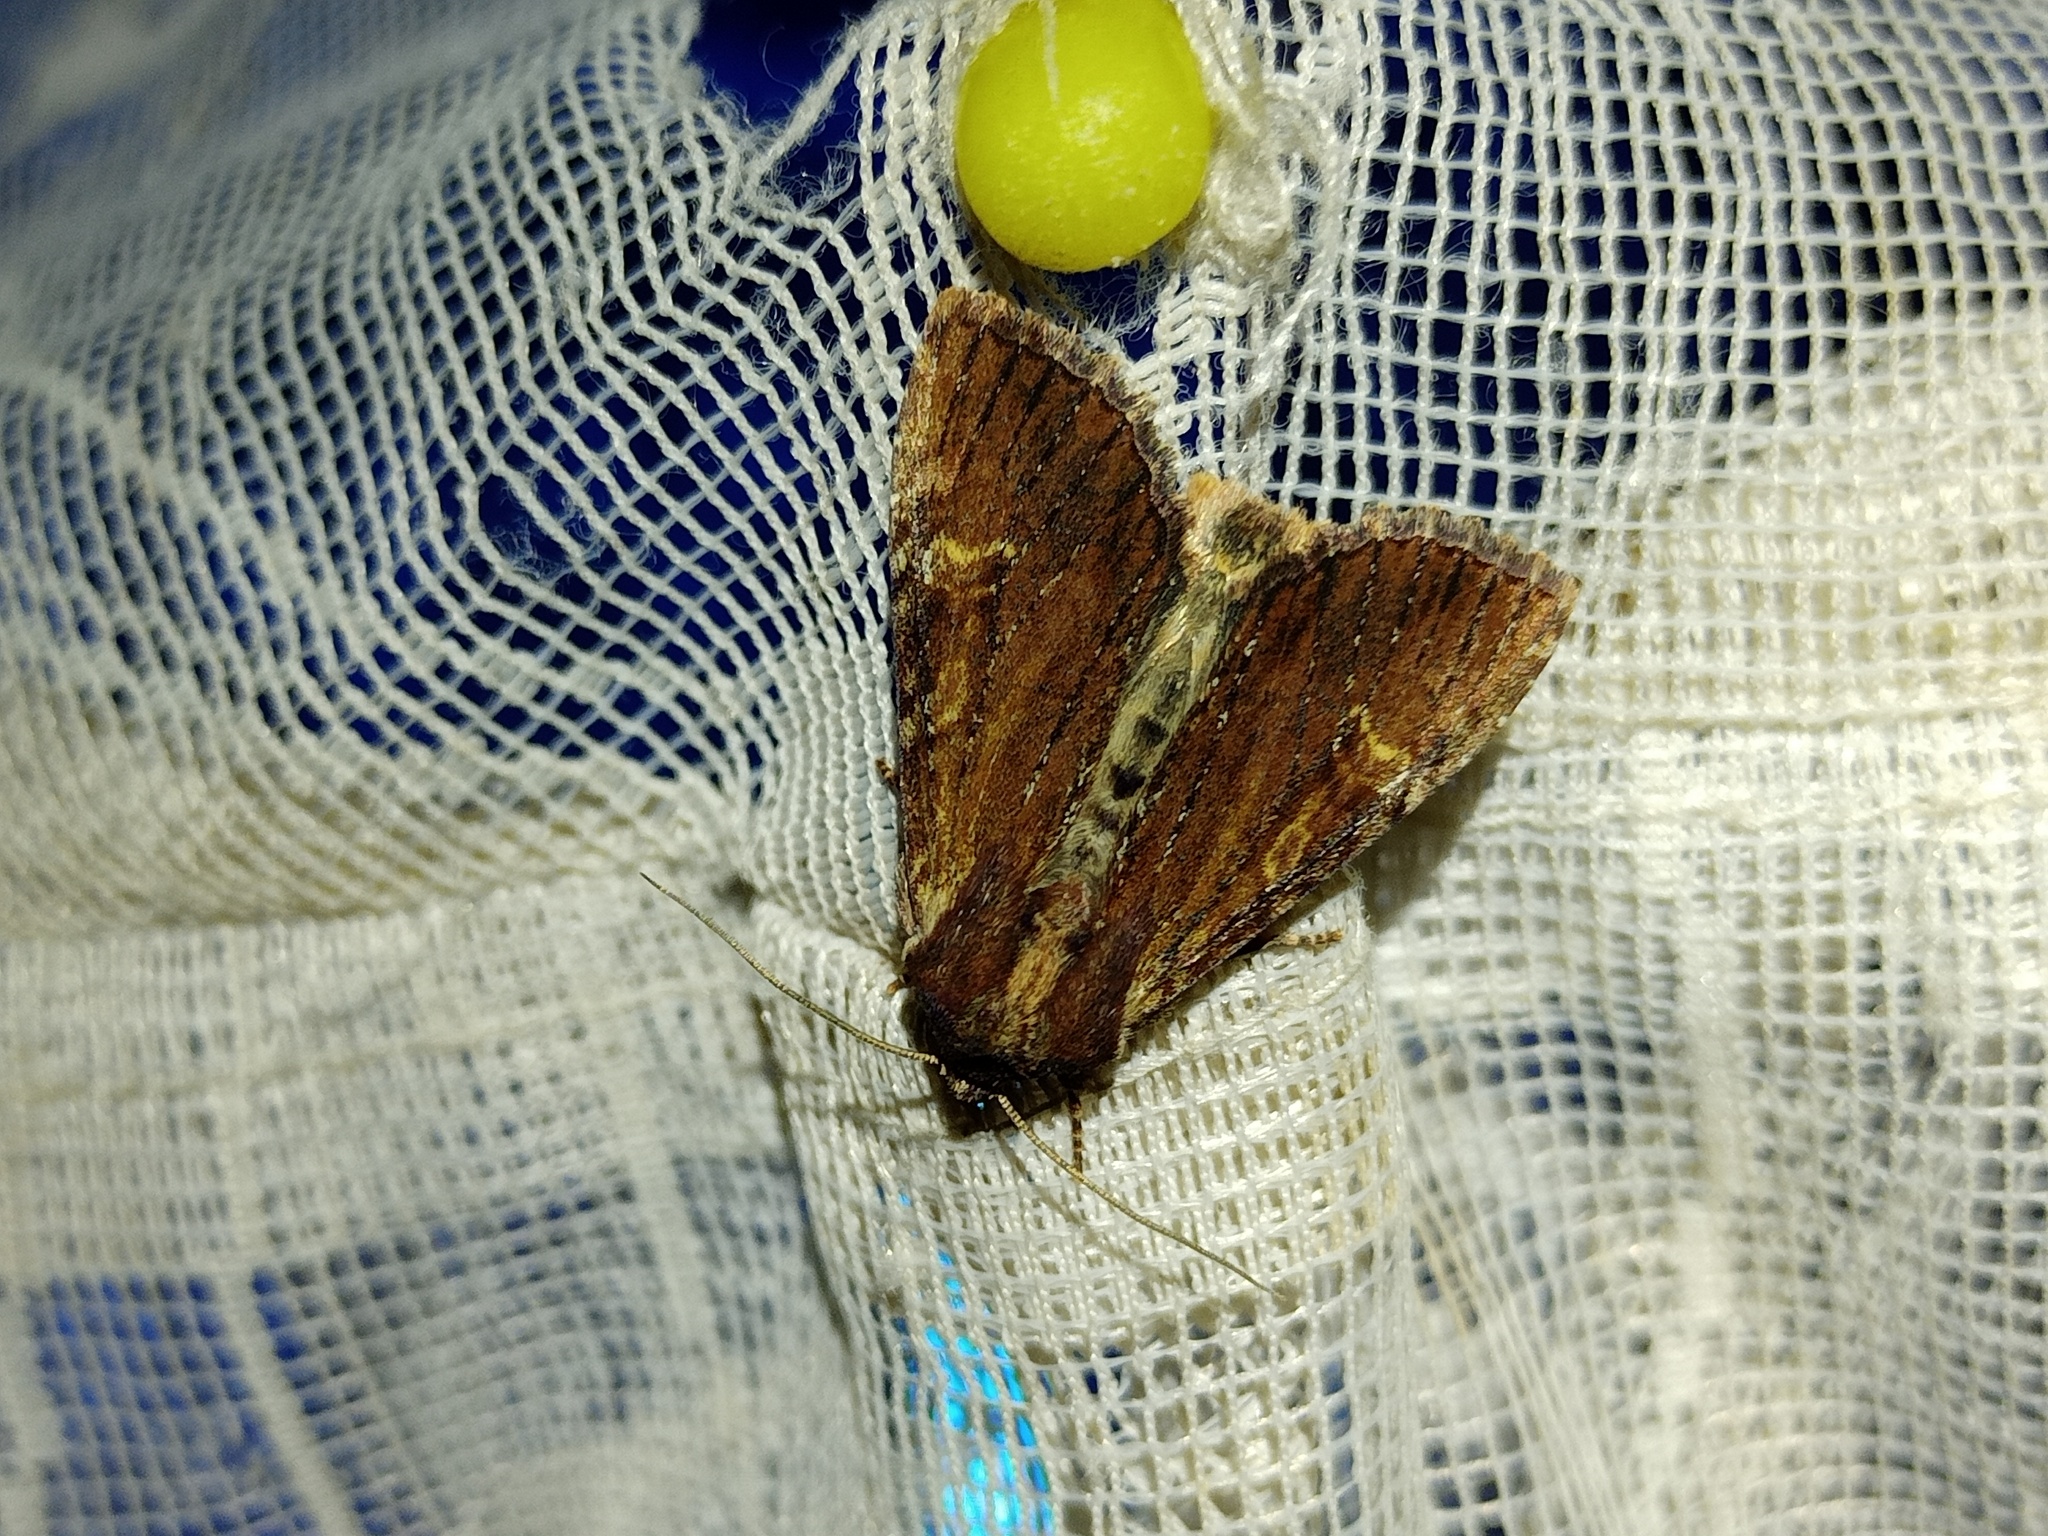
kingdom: Animalia
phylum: Arthropoda
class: Insecta
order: Lepidoptera
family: Noctuidae
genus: Apamea
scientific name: Apamea crenata
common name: Clouded-bordered brindle
